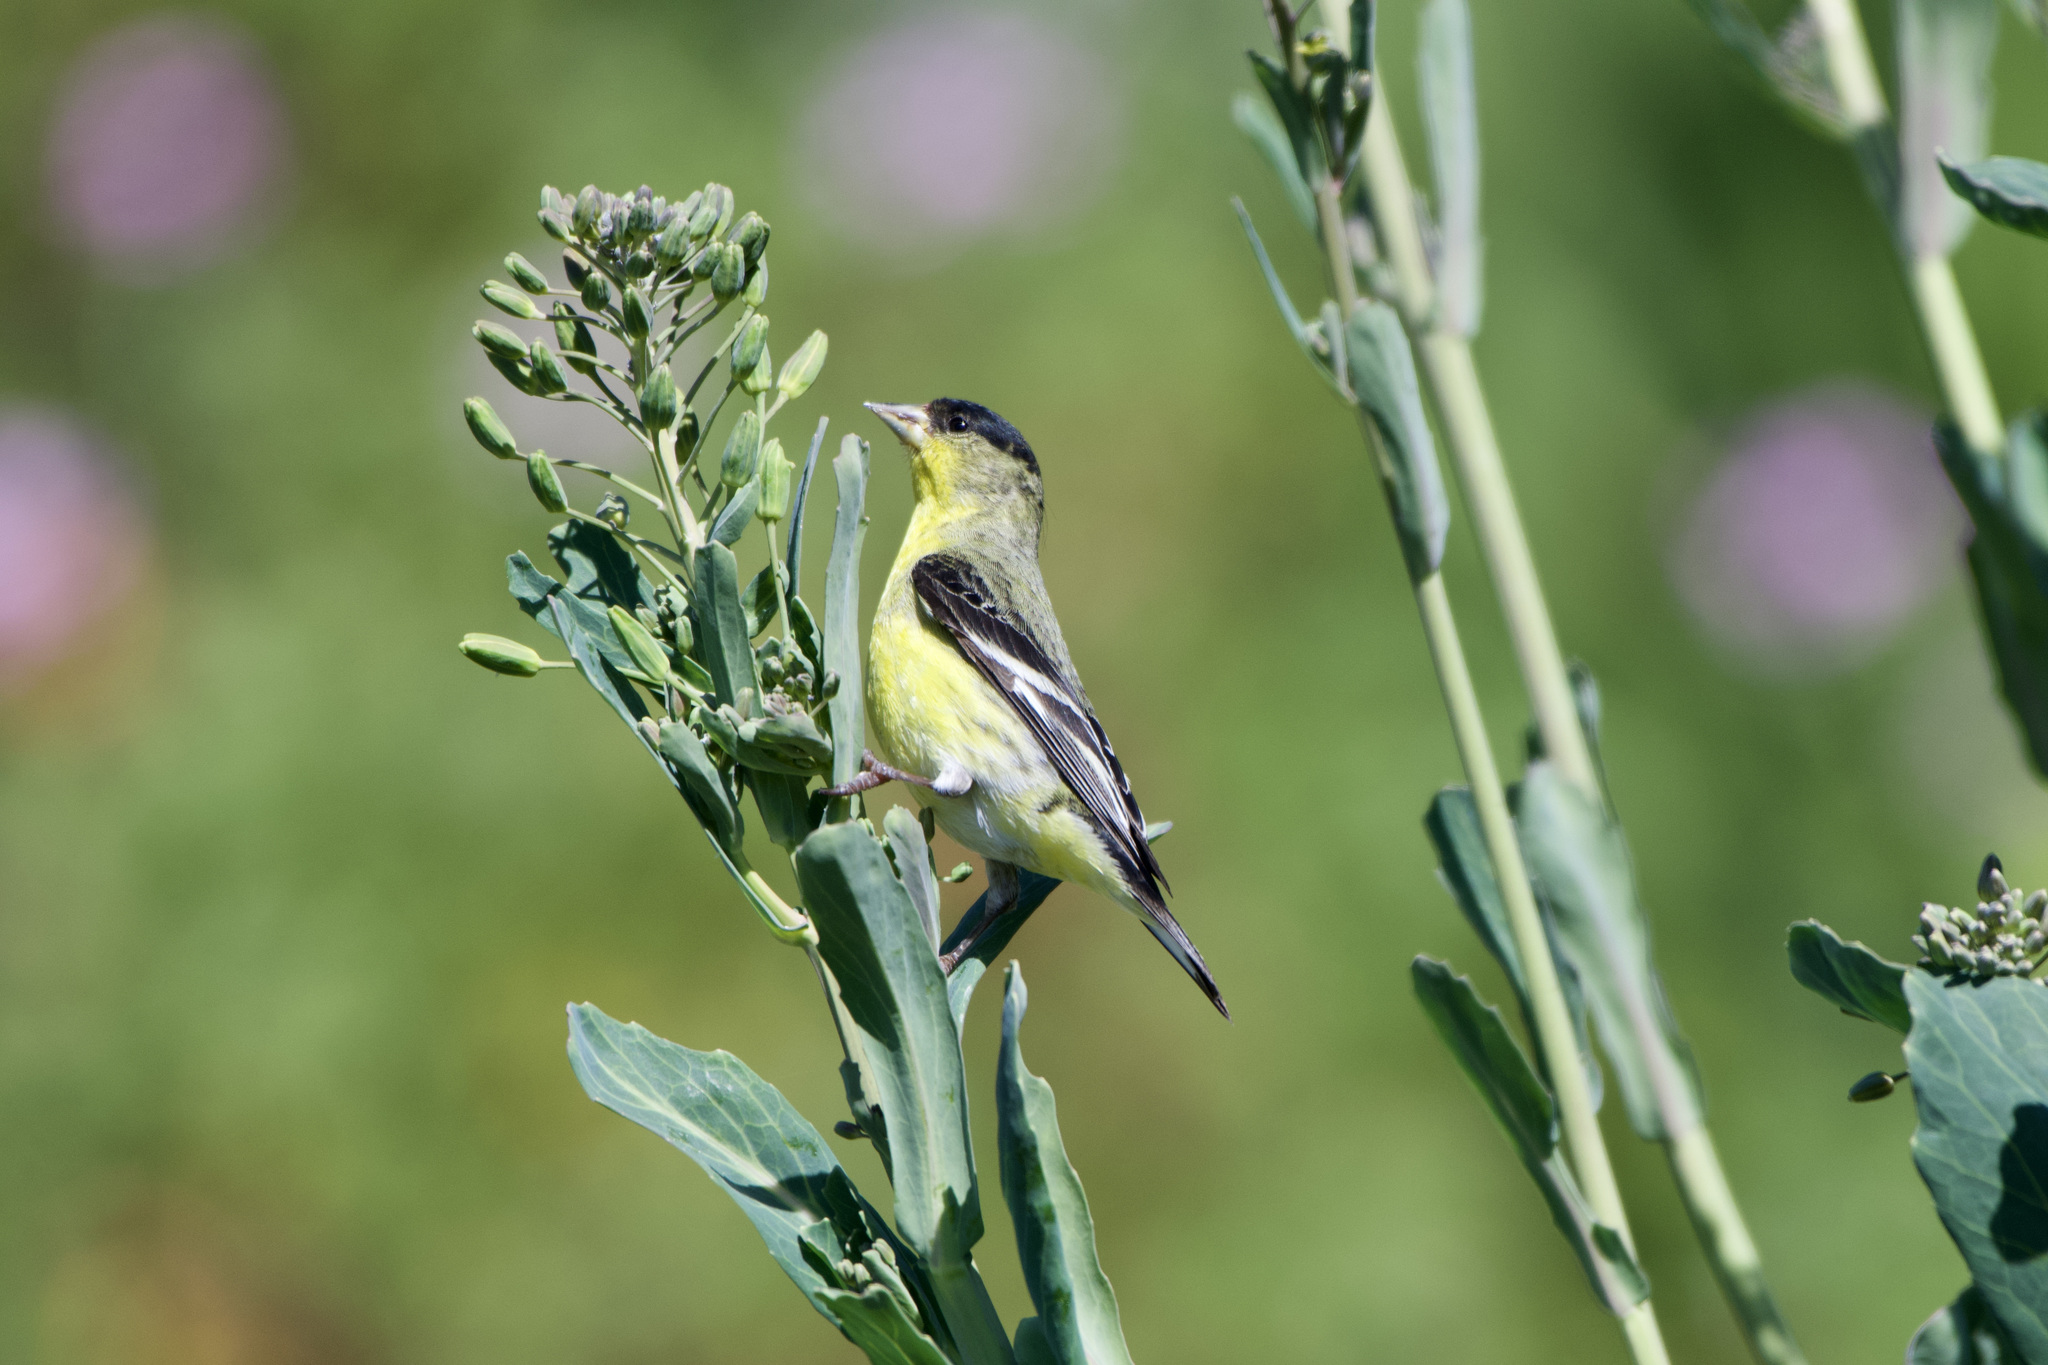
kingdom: Animalia
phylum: Chordata
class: Aves
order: Passeriformes
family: Fringillidae
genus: Spinus
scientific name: Spinus psaltria
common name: Lesser goldfinch
